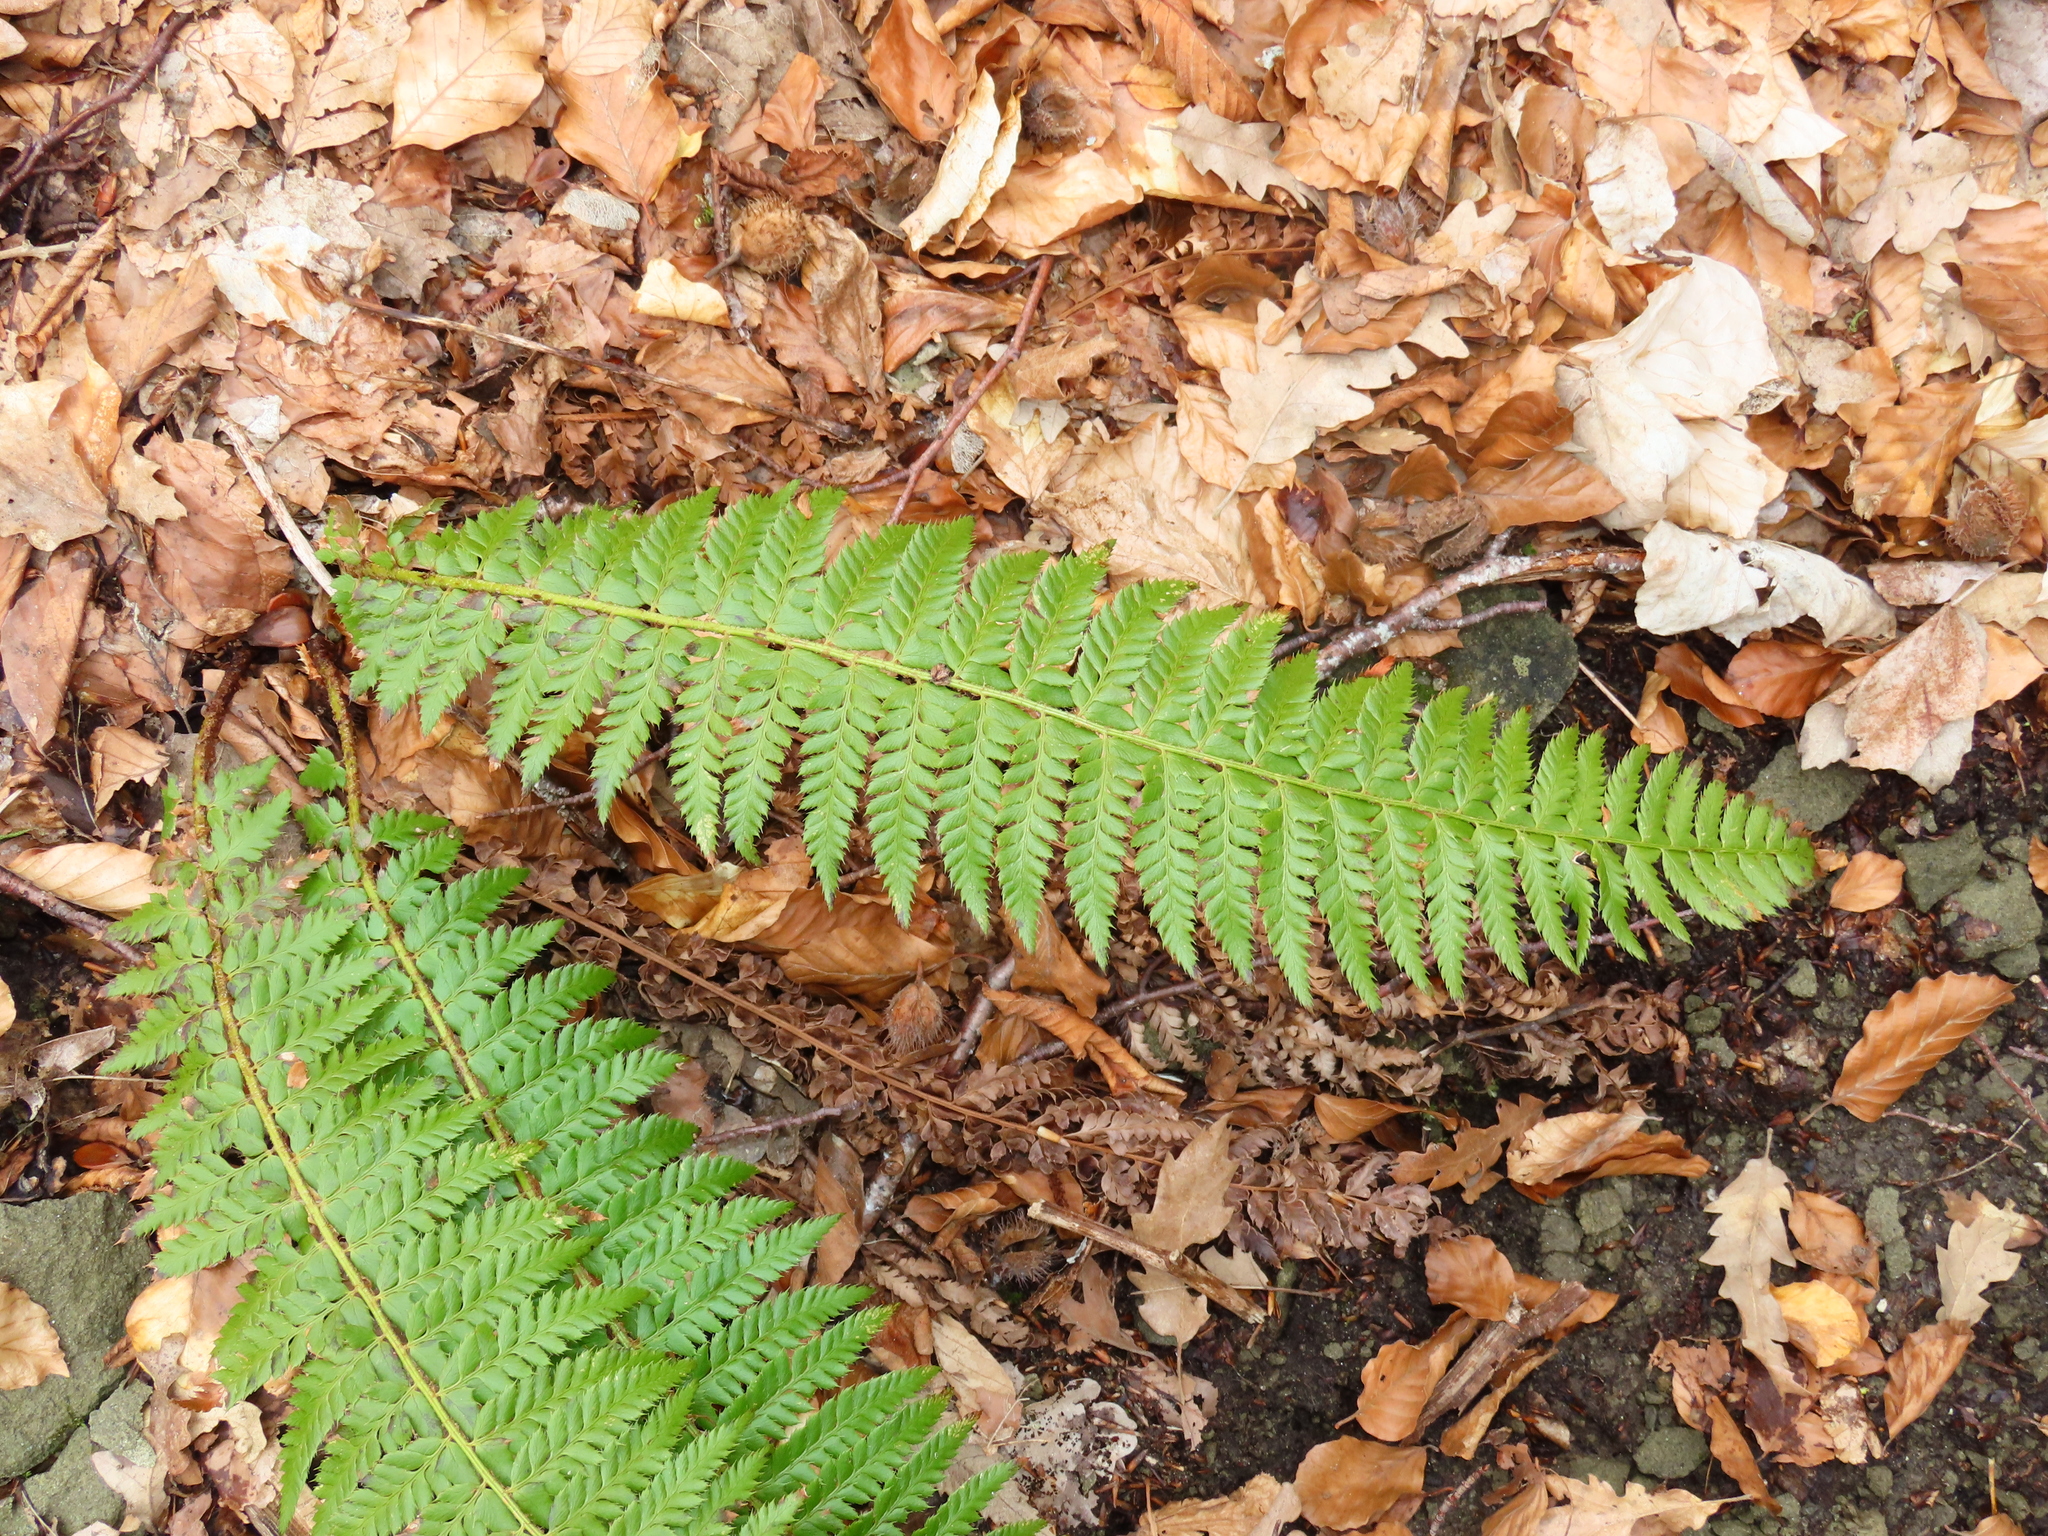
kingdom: Plantae
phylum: Tracheophyta
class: Polypodiopsida
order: Polypodiales
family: Dryopteridaceae
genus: Polystichum
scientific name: Polystichum aculeatum
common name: Hard shield-fern
